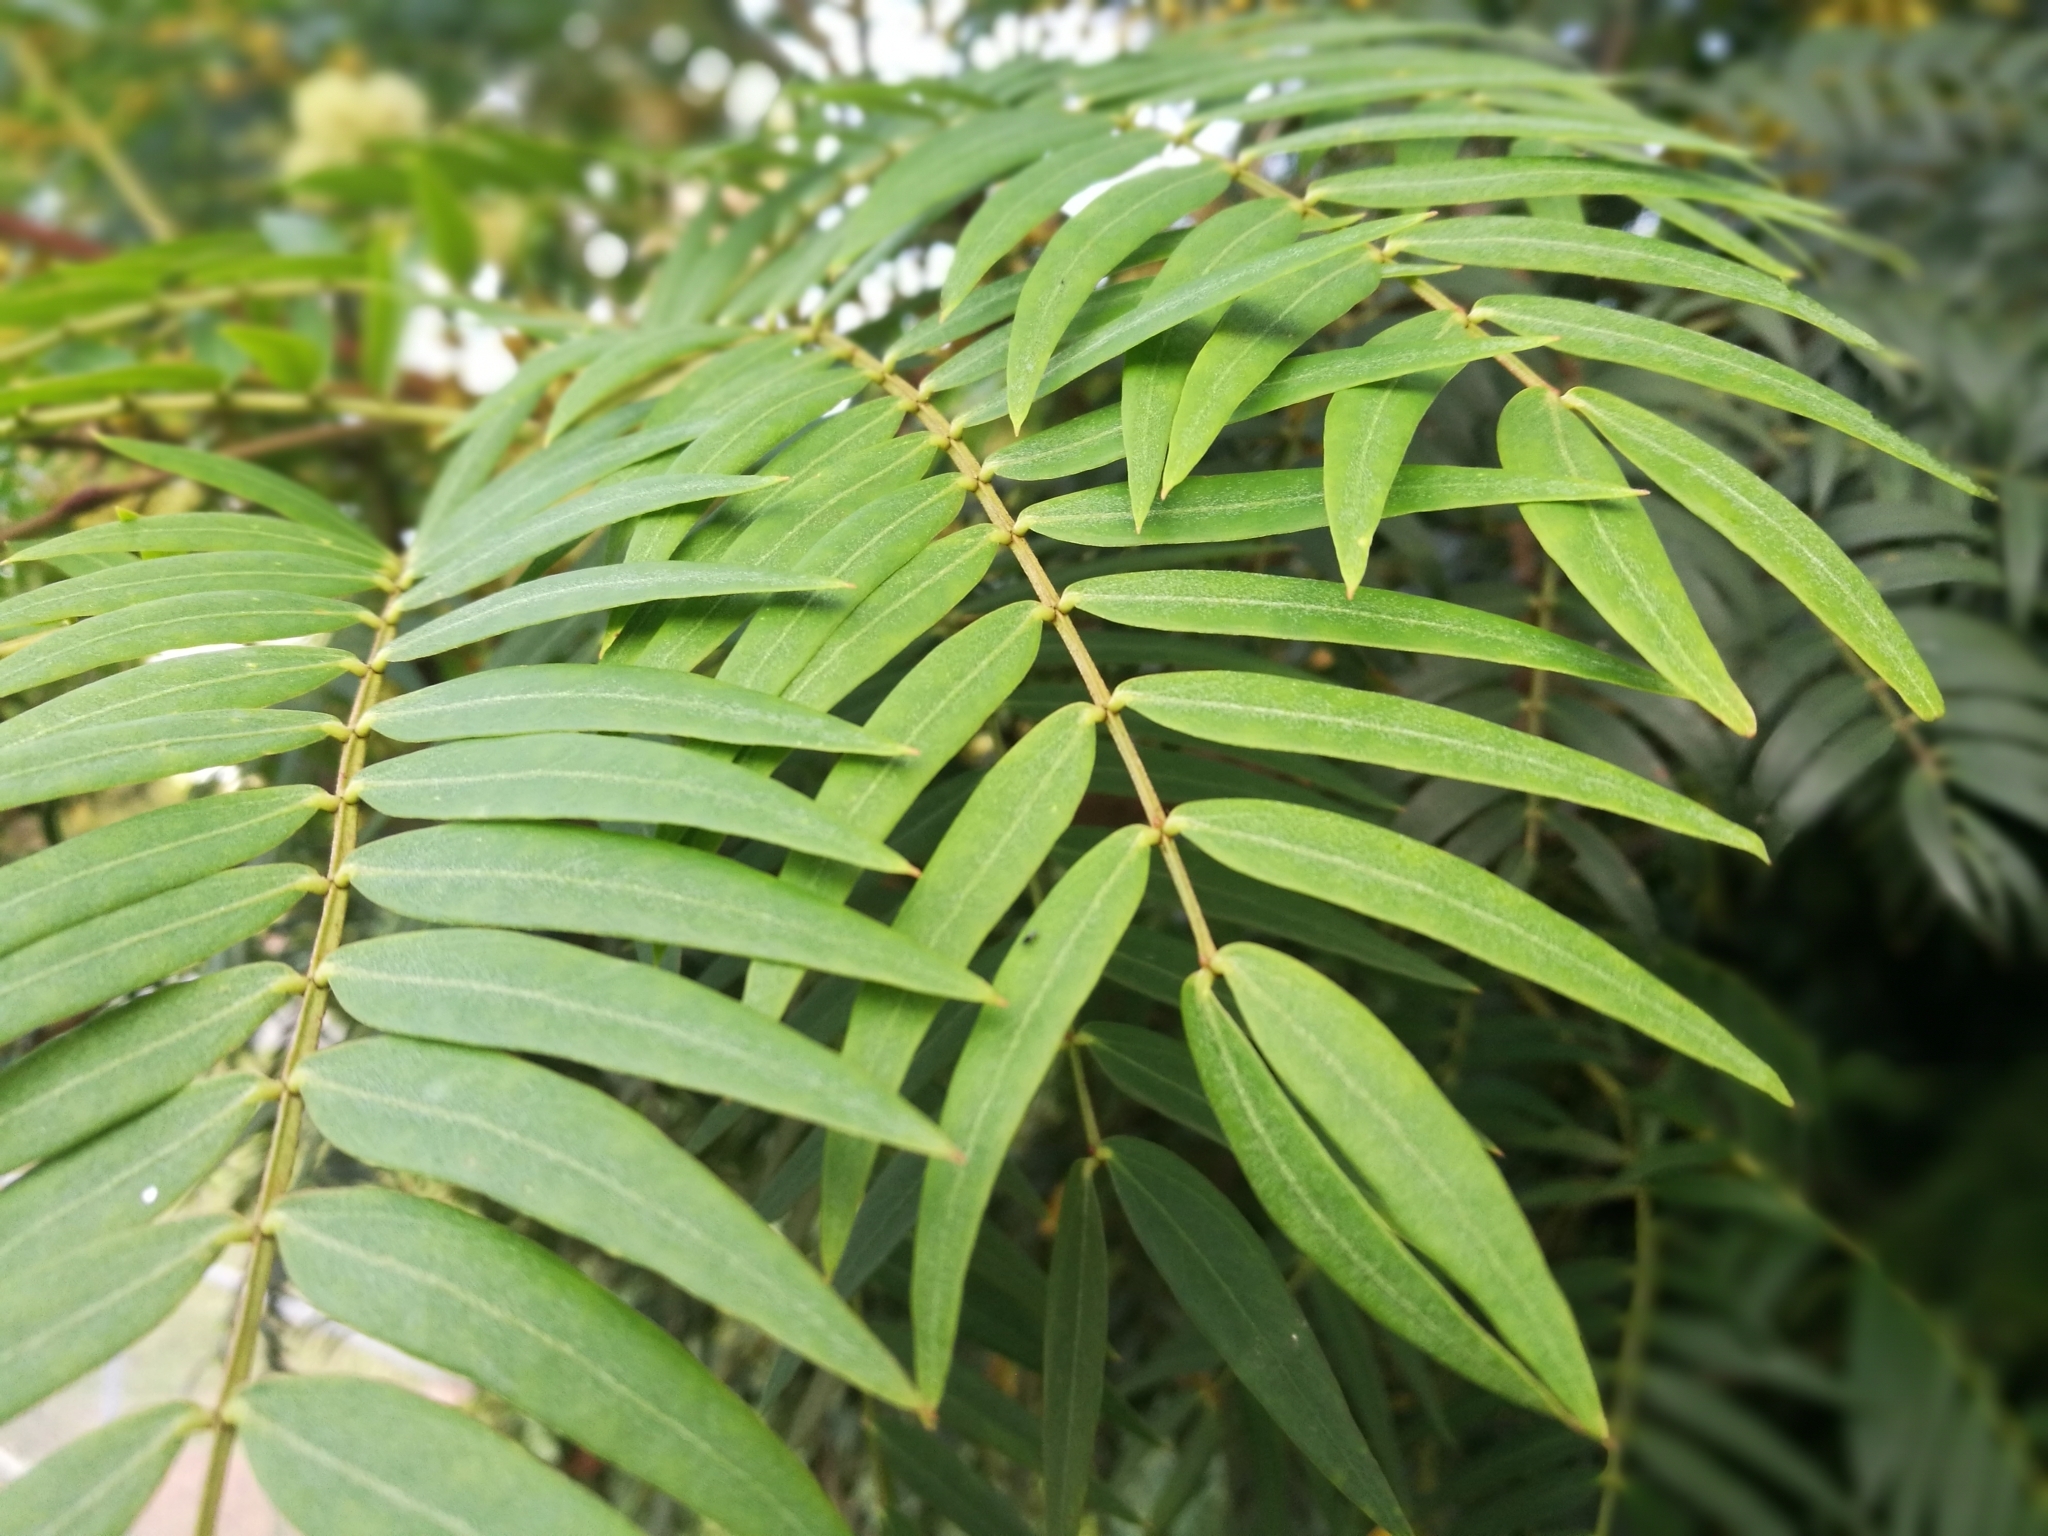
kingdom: Plantae
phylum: Tracheophyta
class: Magnoliopsida
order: Fabales
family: Fabaceae
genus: Acacia
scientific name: Acacia elata
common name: Cedar wattle
